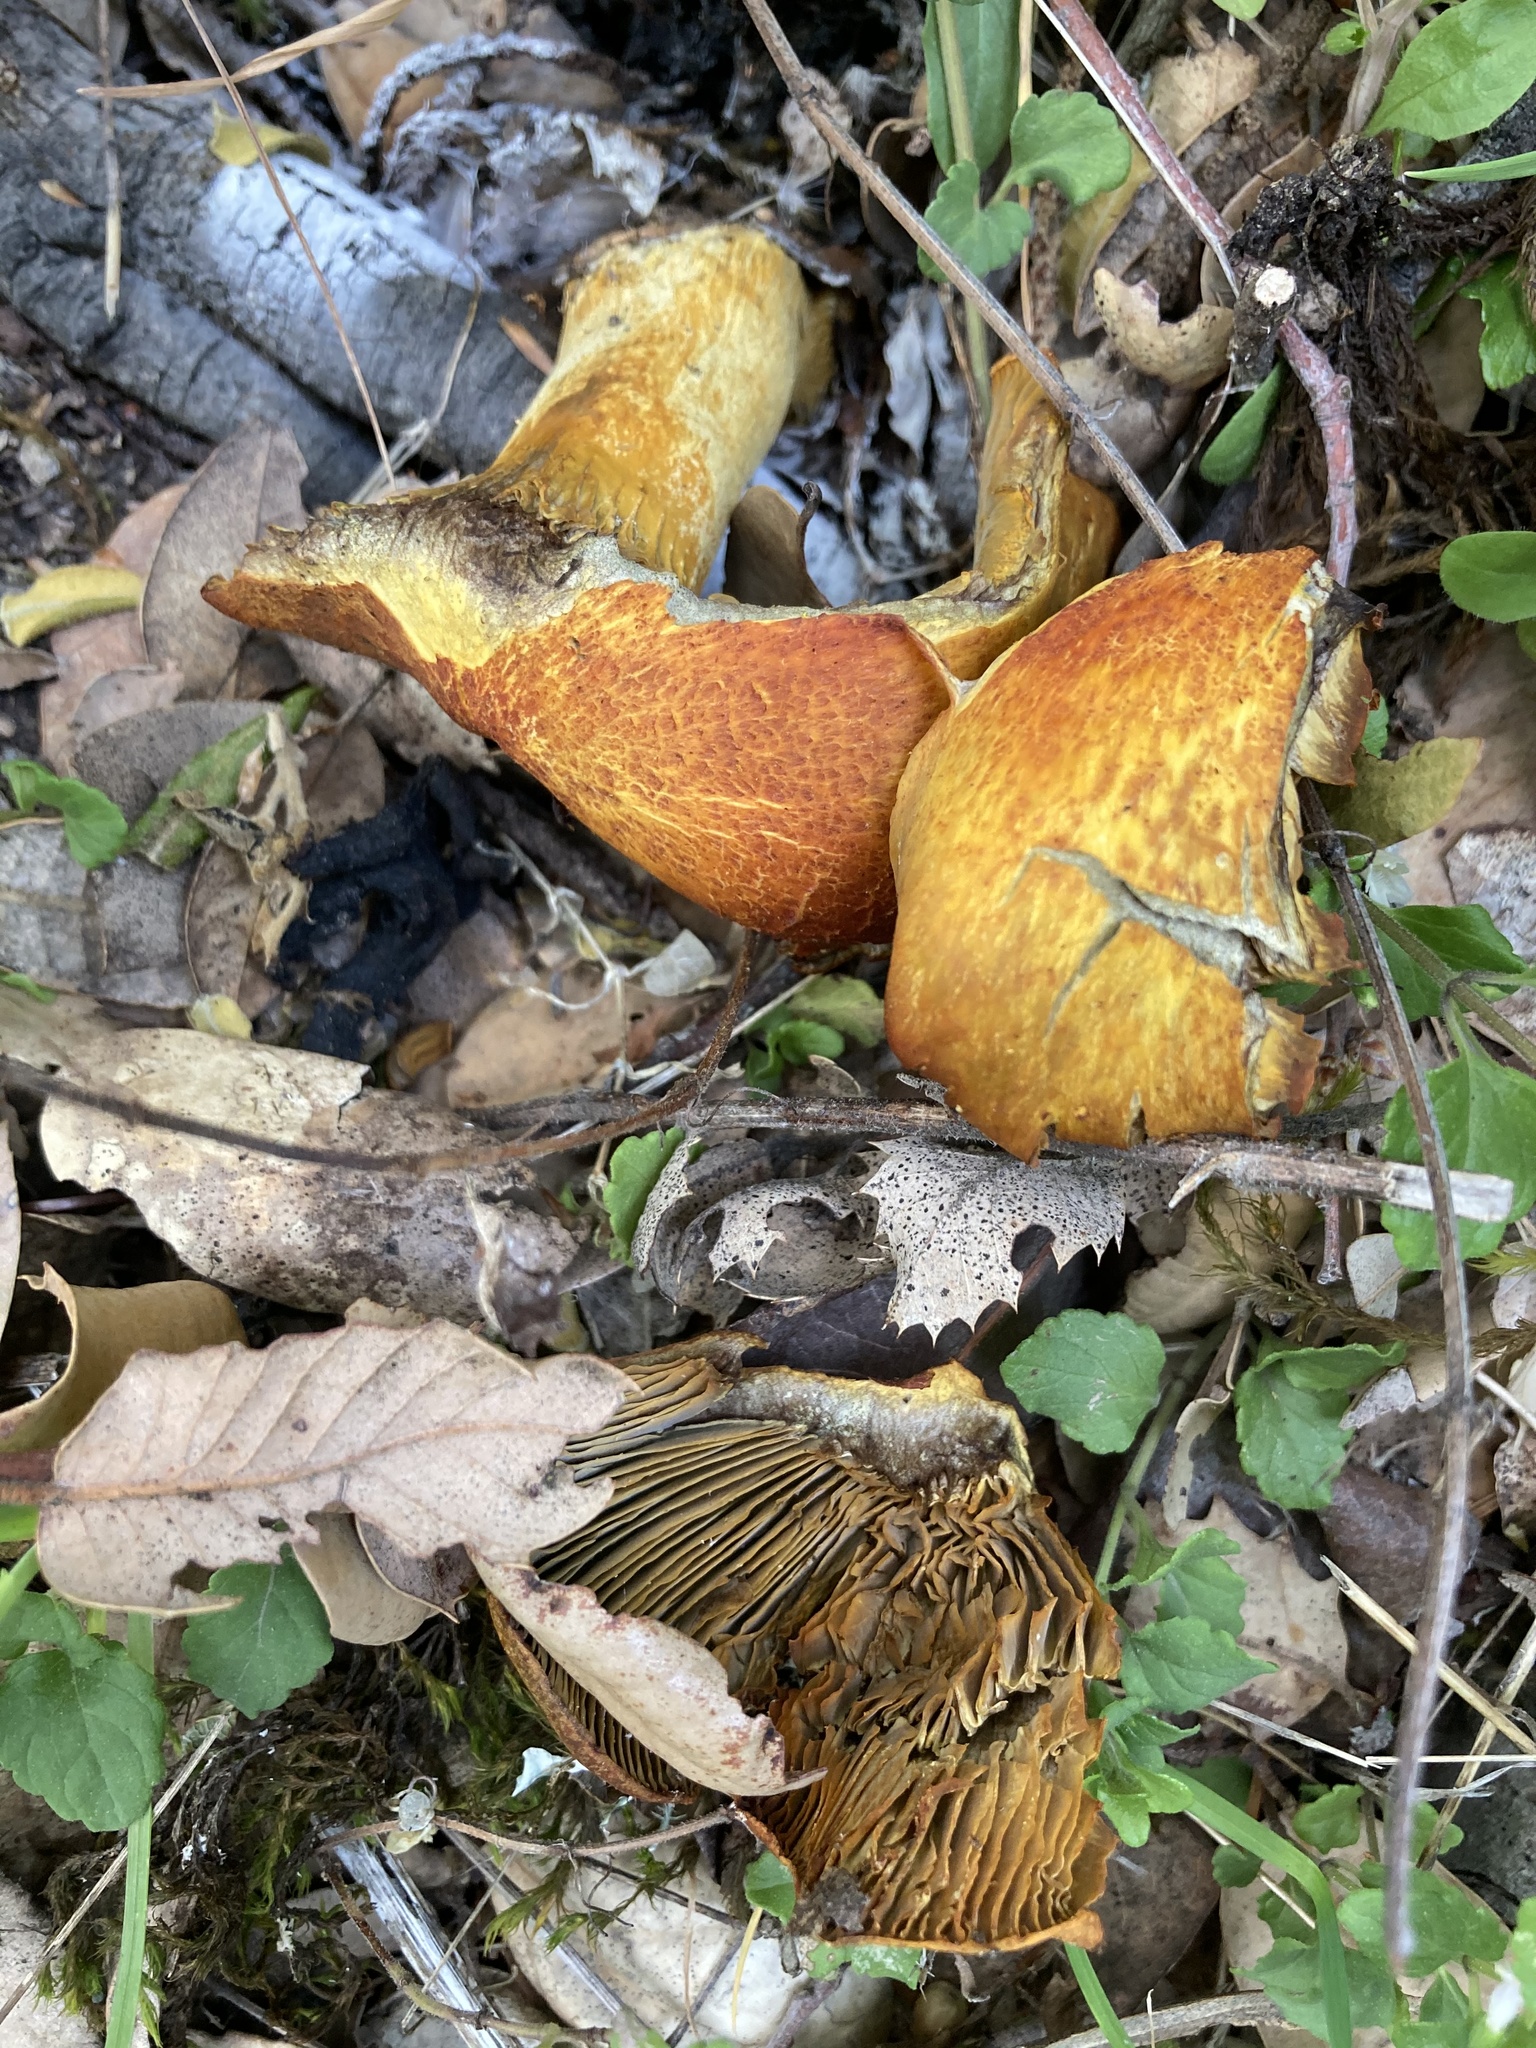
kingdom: Fungi
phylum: Basidiomycota
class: Agaricomycetes
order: Agaricales
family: Omphalotaceae
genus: Omphalotus
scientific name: Omphalotus olivascens
